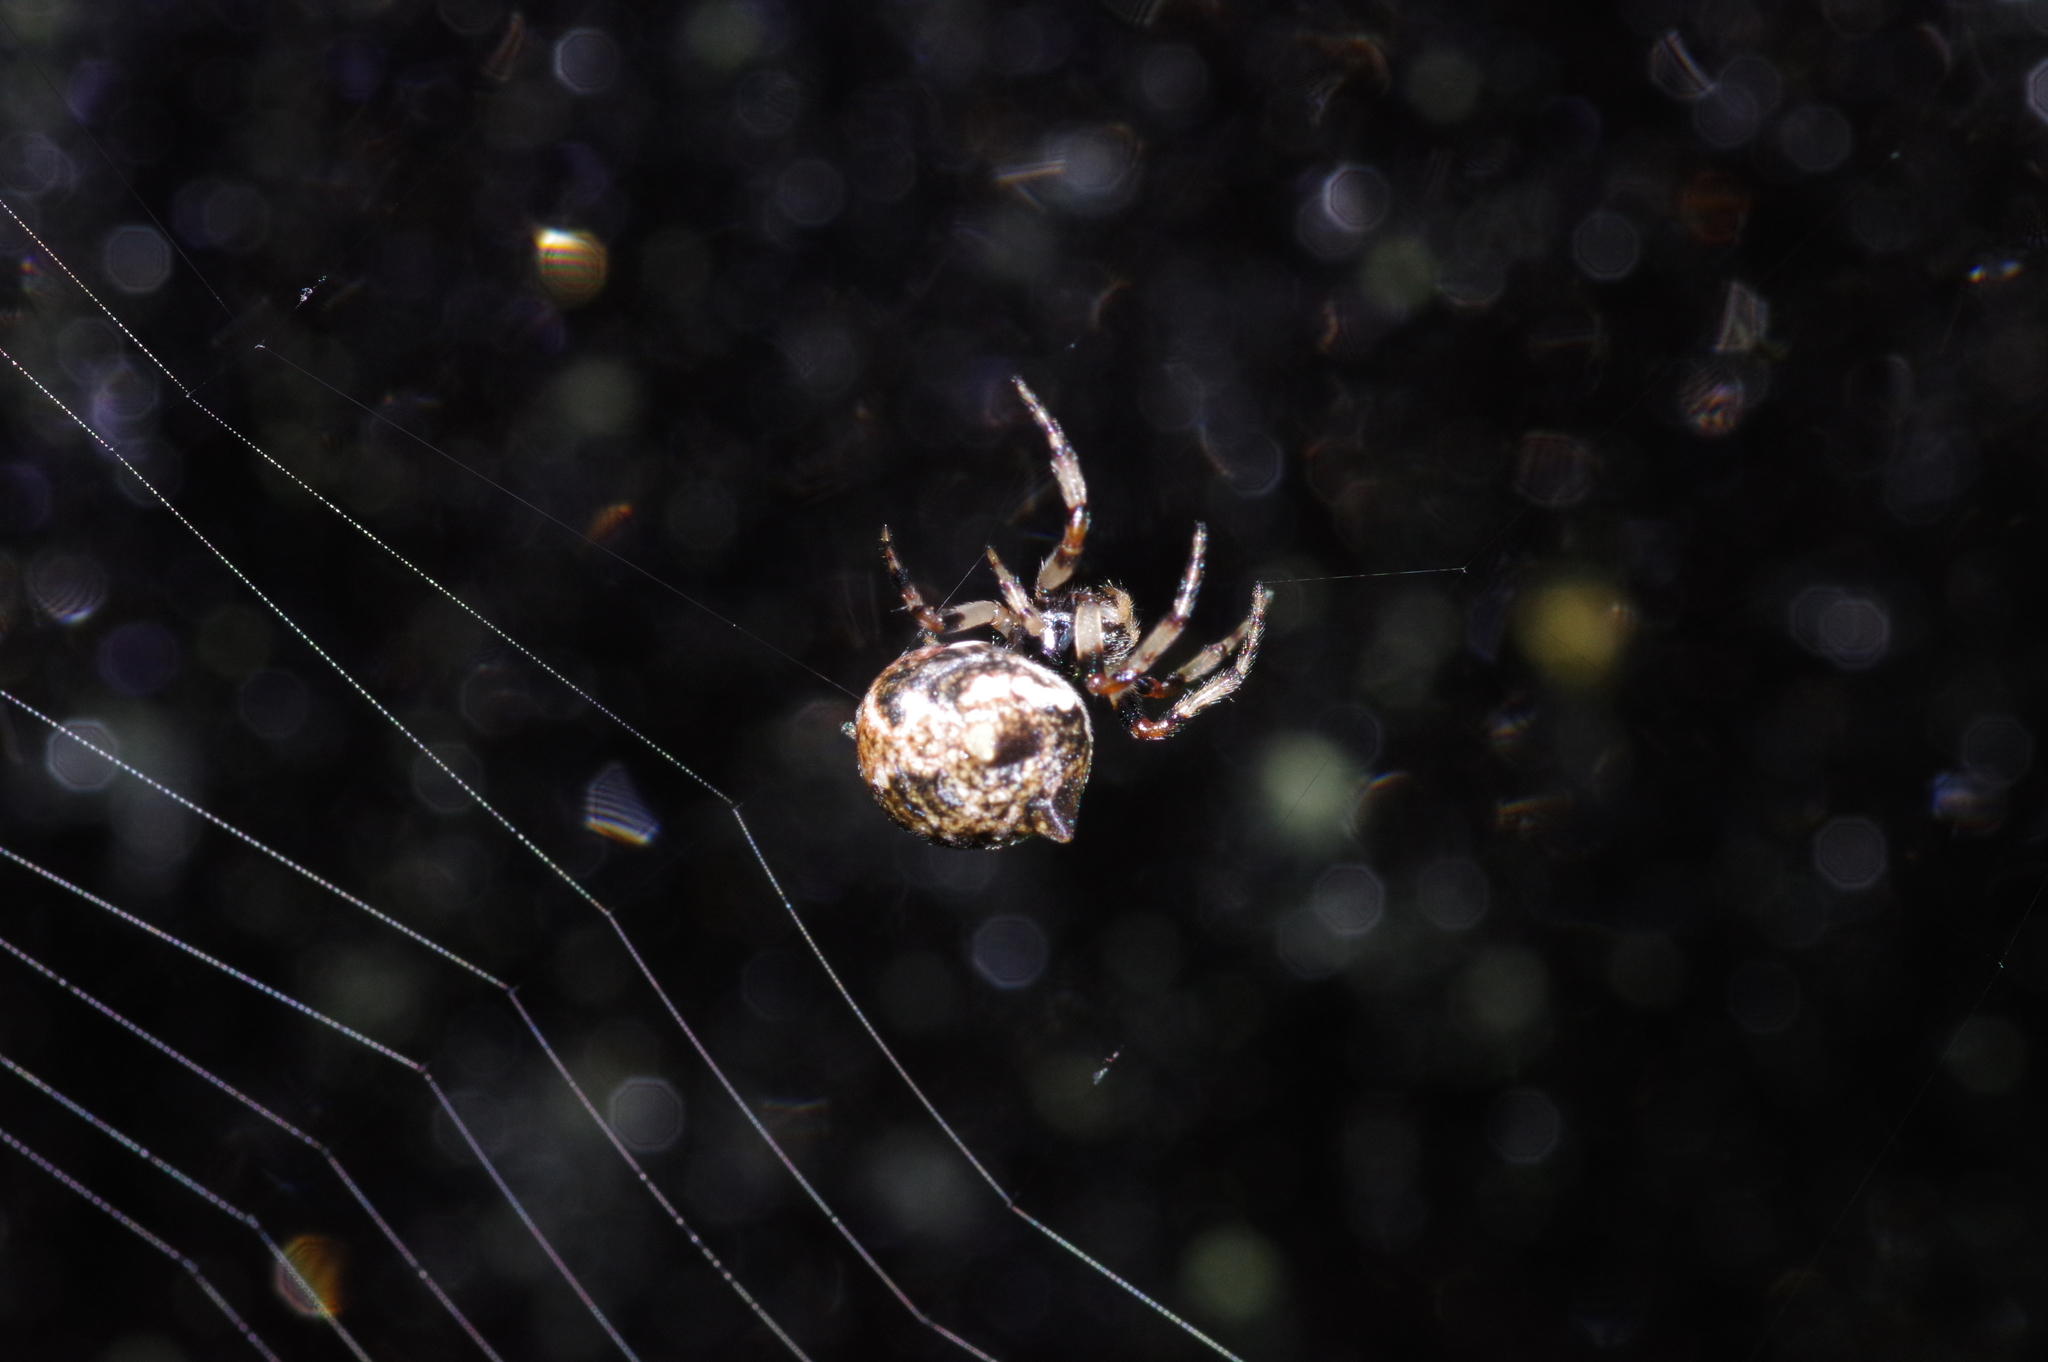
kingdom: Animalia
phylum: Arthropoda
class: Arachnida
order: Araneae
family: Araneidae
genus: Cyclosa
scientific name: Cyclosa mulmeinensis
